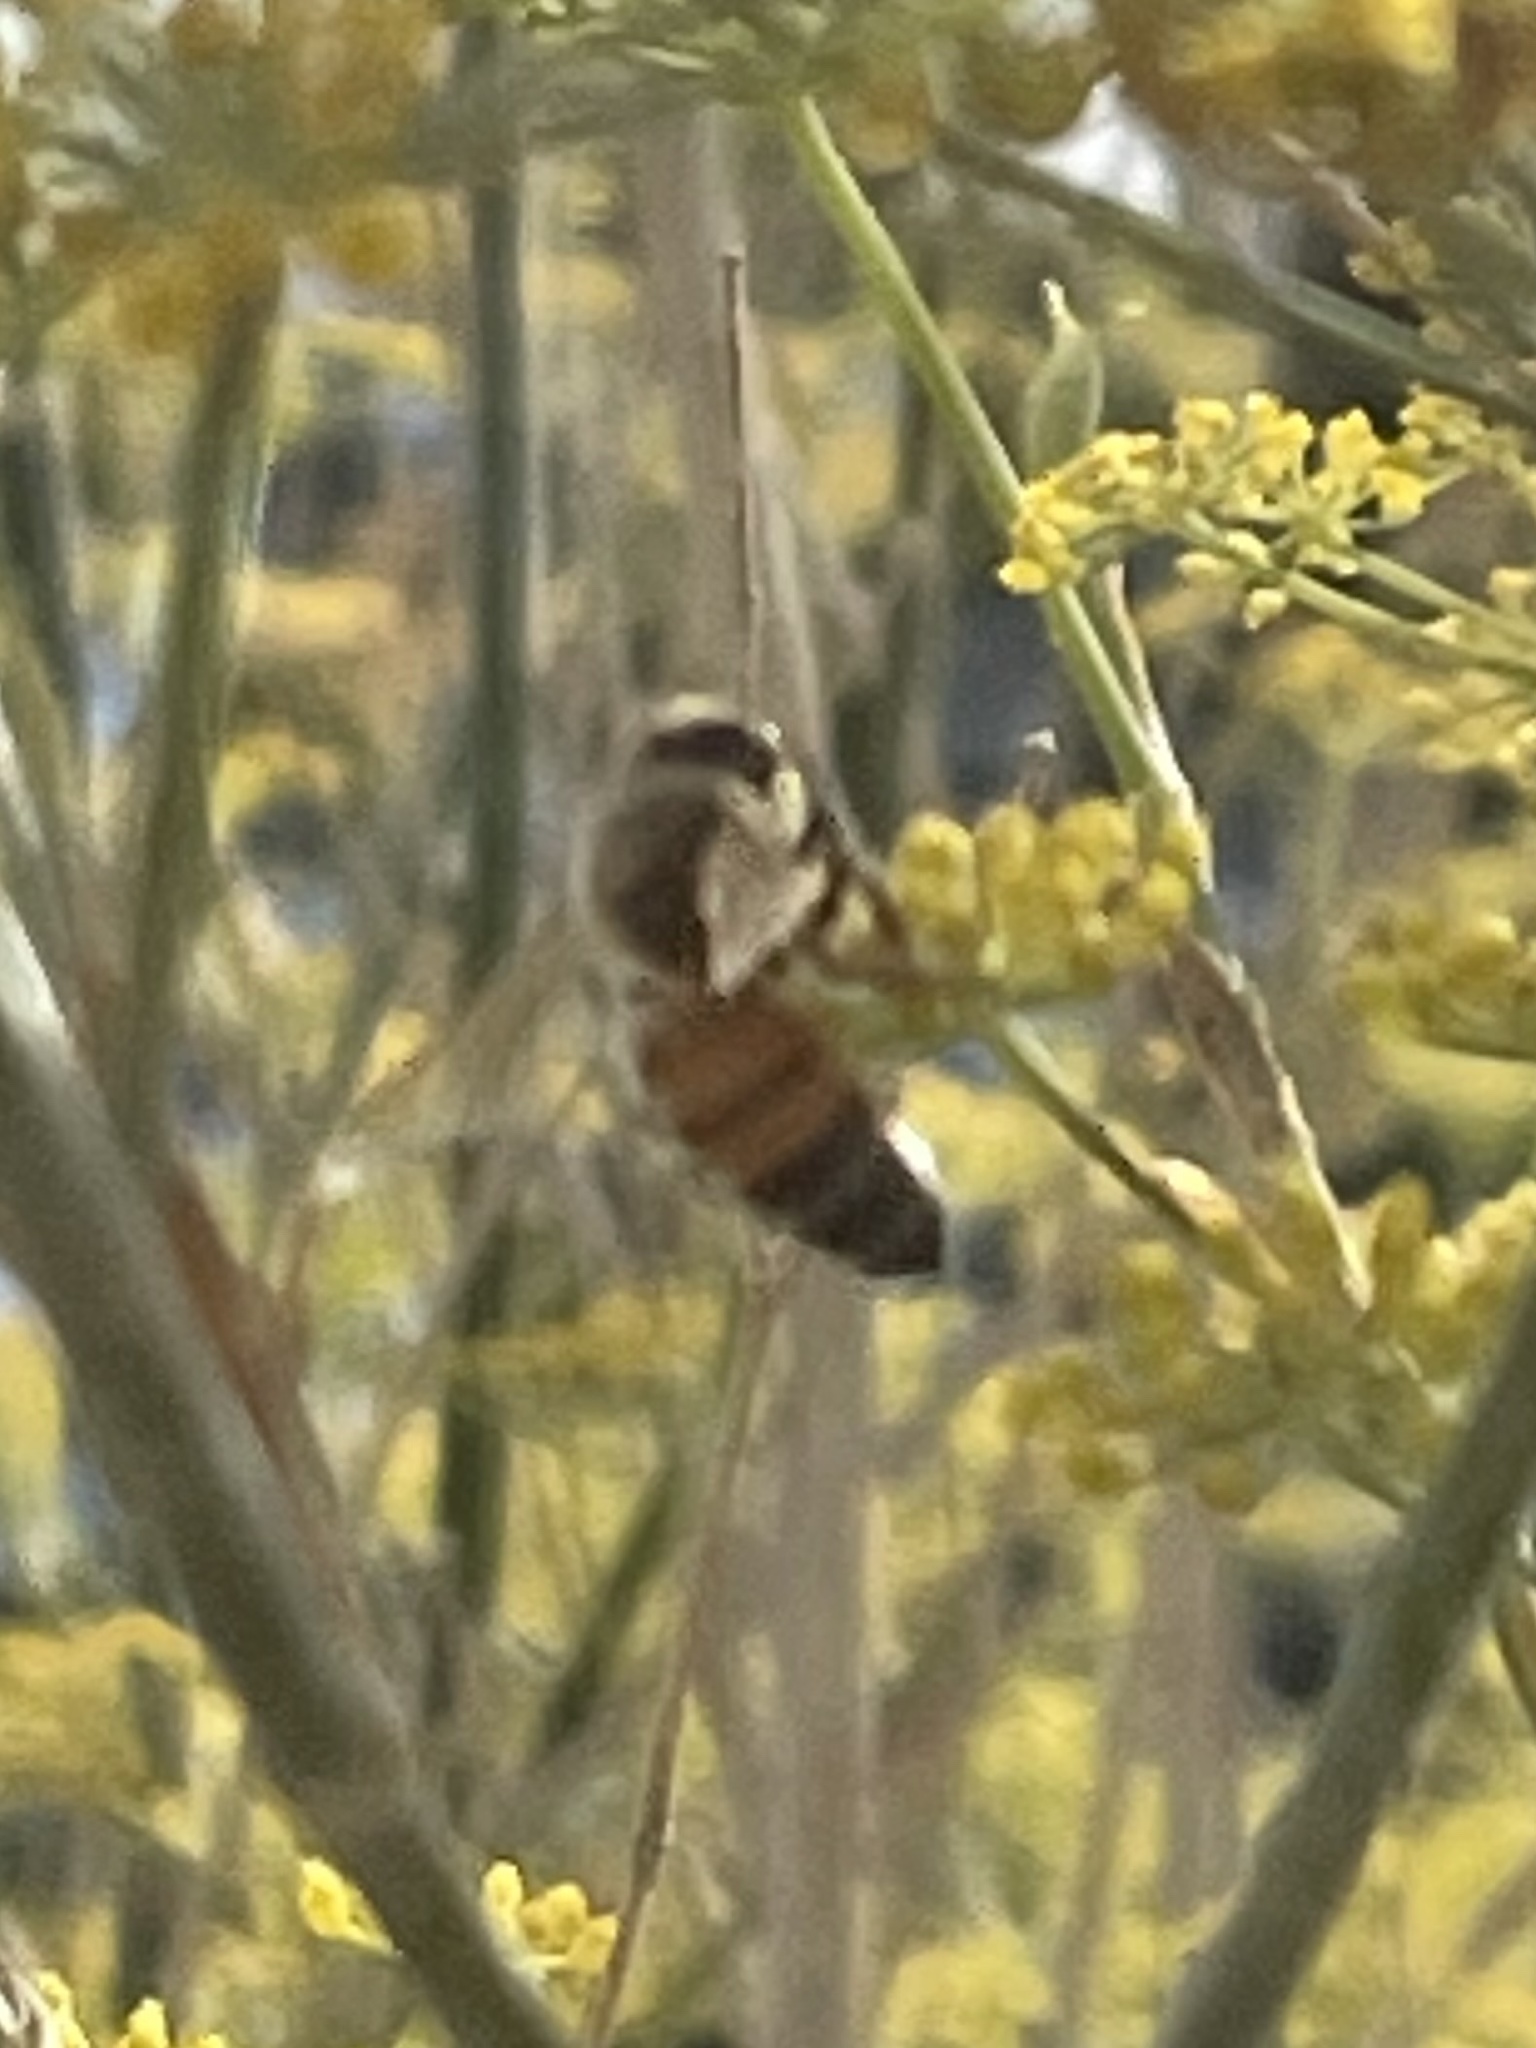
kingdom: Animalia
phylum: Arthropoda
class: Insecta
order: Hymenoptera
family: Apidae
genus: Apis
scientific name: Apis mellifera
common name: Honey bee
